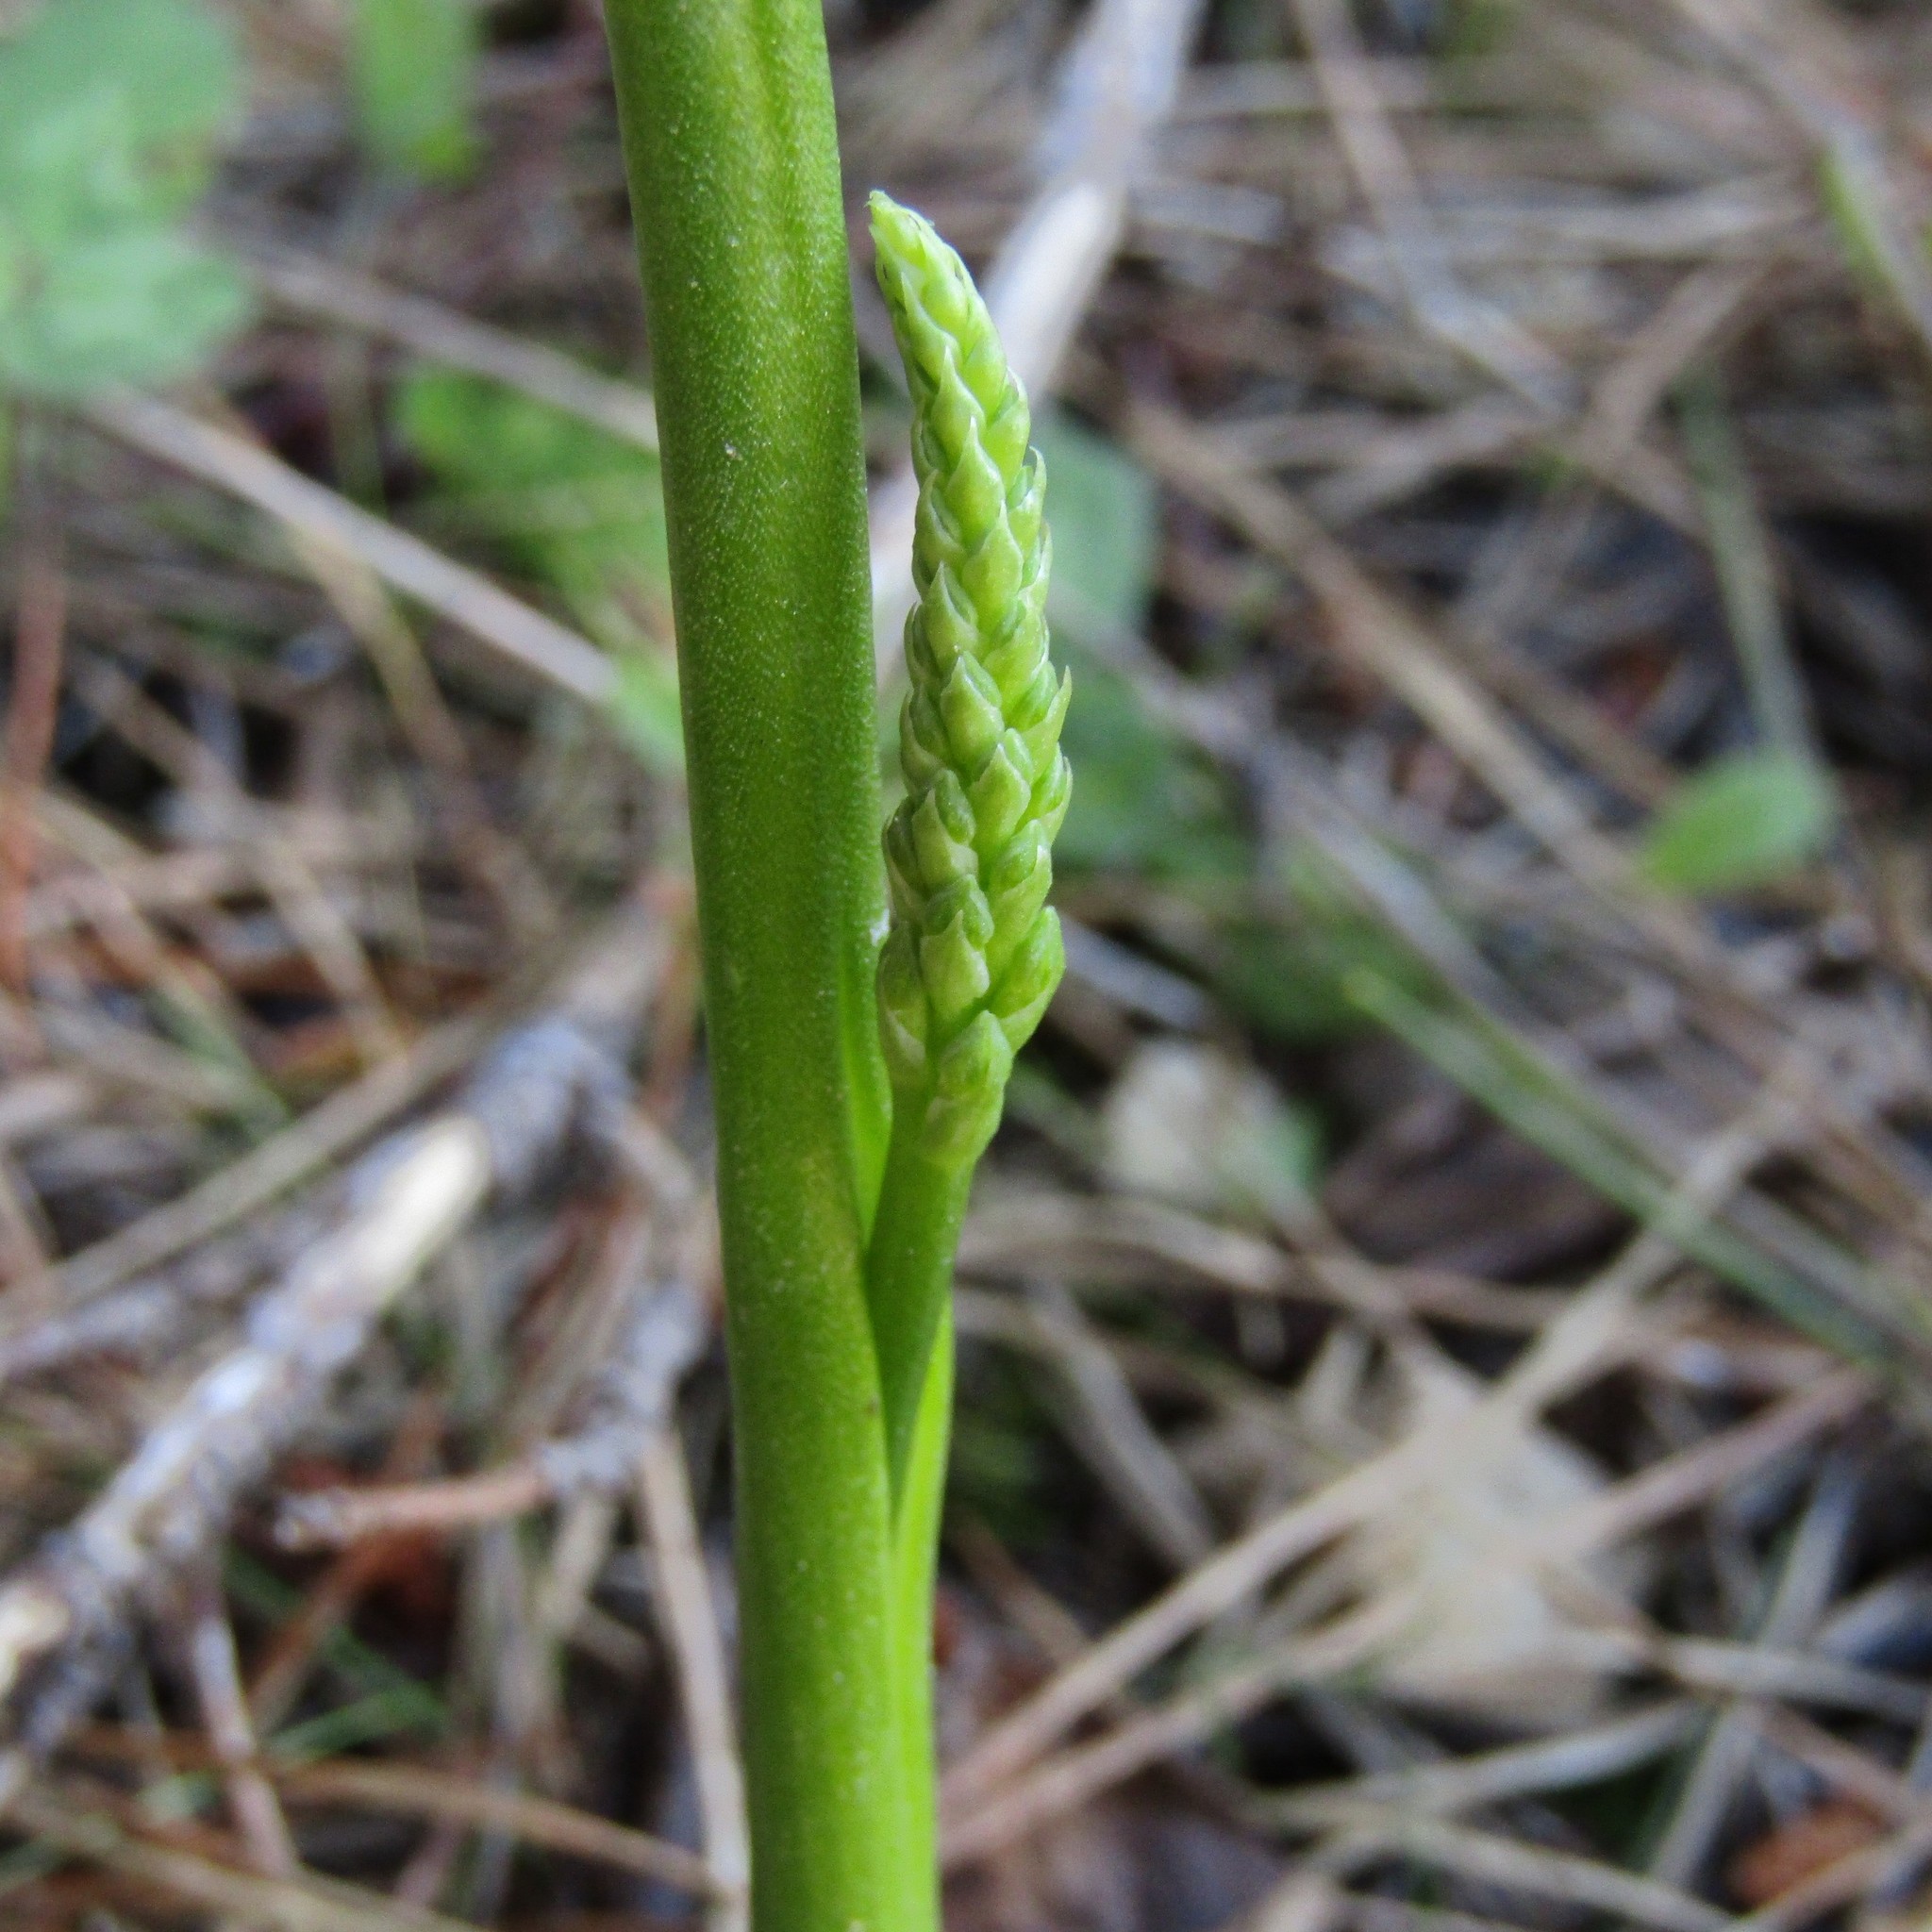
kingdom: Plantae
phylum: Tracheophyta
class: Liliopsida
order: Asparagales
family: Orchidaceae
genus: Microtis
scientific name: Microtis unifolia
